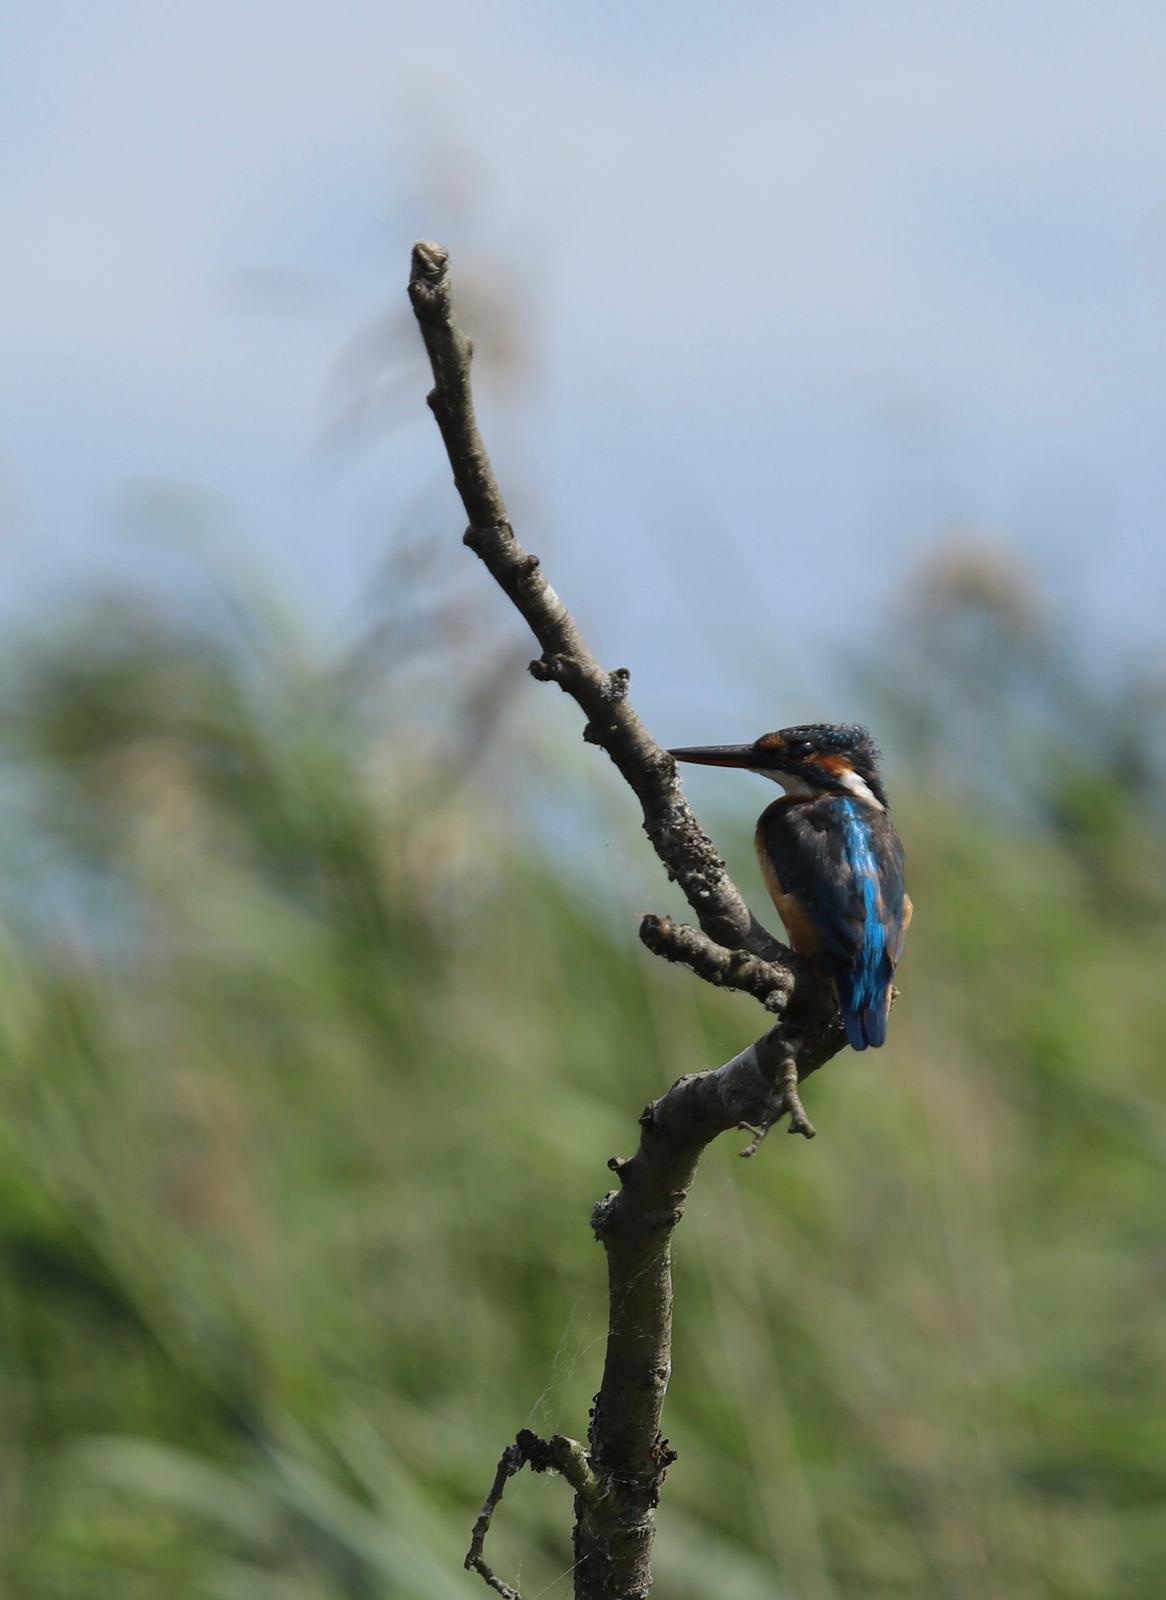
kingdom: Animalia
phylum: Chordata
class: Aves
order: Coraciiformes
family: Alcedinidae
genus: Alcedo
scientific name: Alcedo atthis
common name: Common kingfisher
